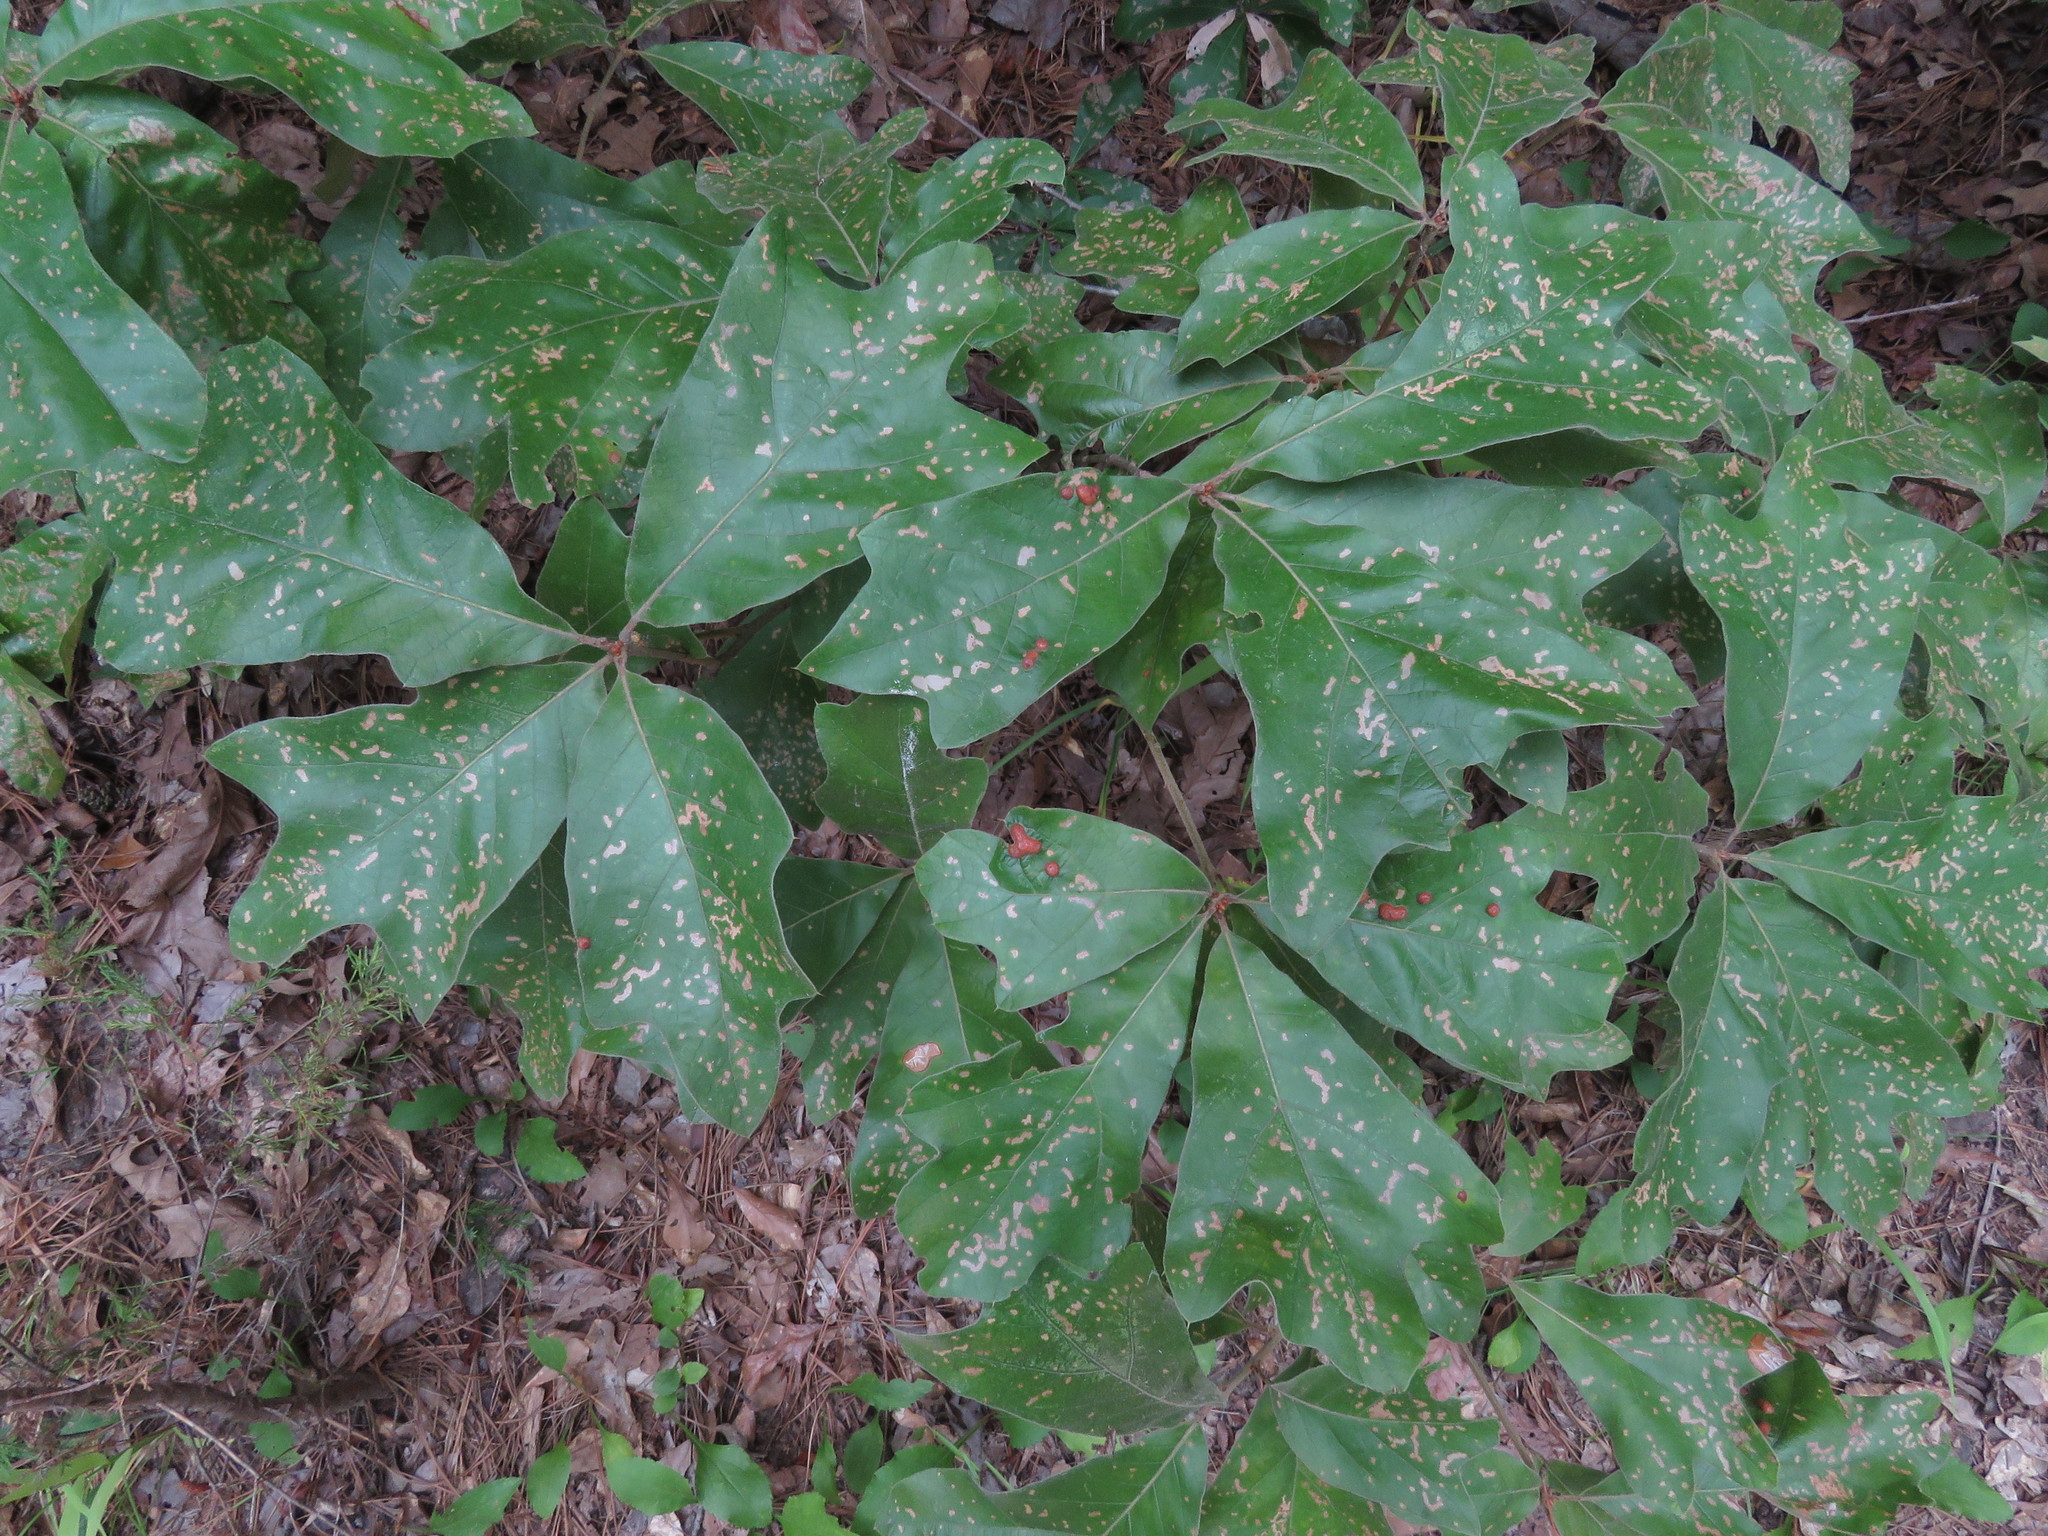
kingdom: Plantae
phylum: Tracheophyta
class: Magnoliopsida
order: Fagales
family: Fagaceae
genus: Quercus
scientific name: Quercus falcata
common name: Southern red oak
